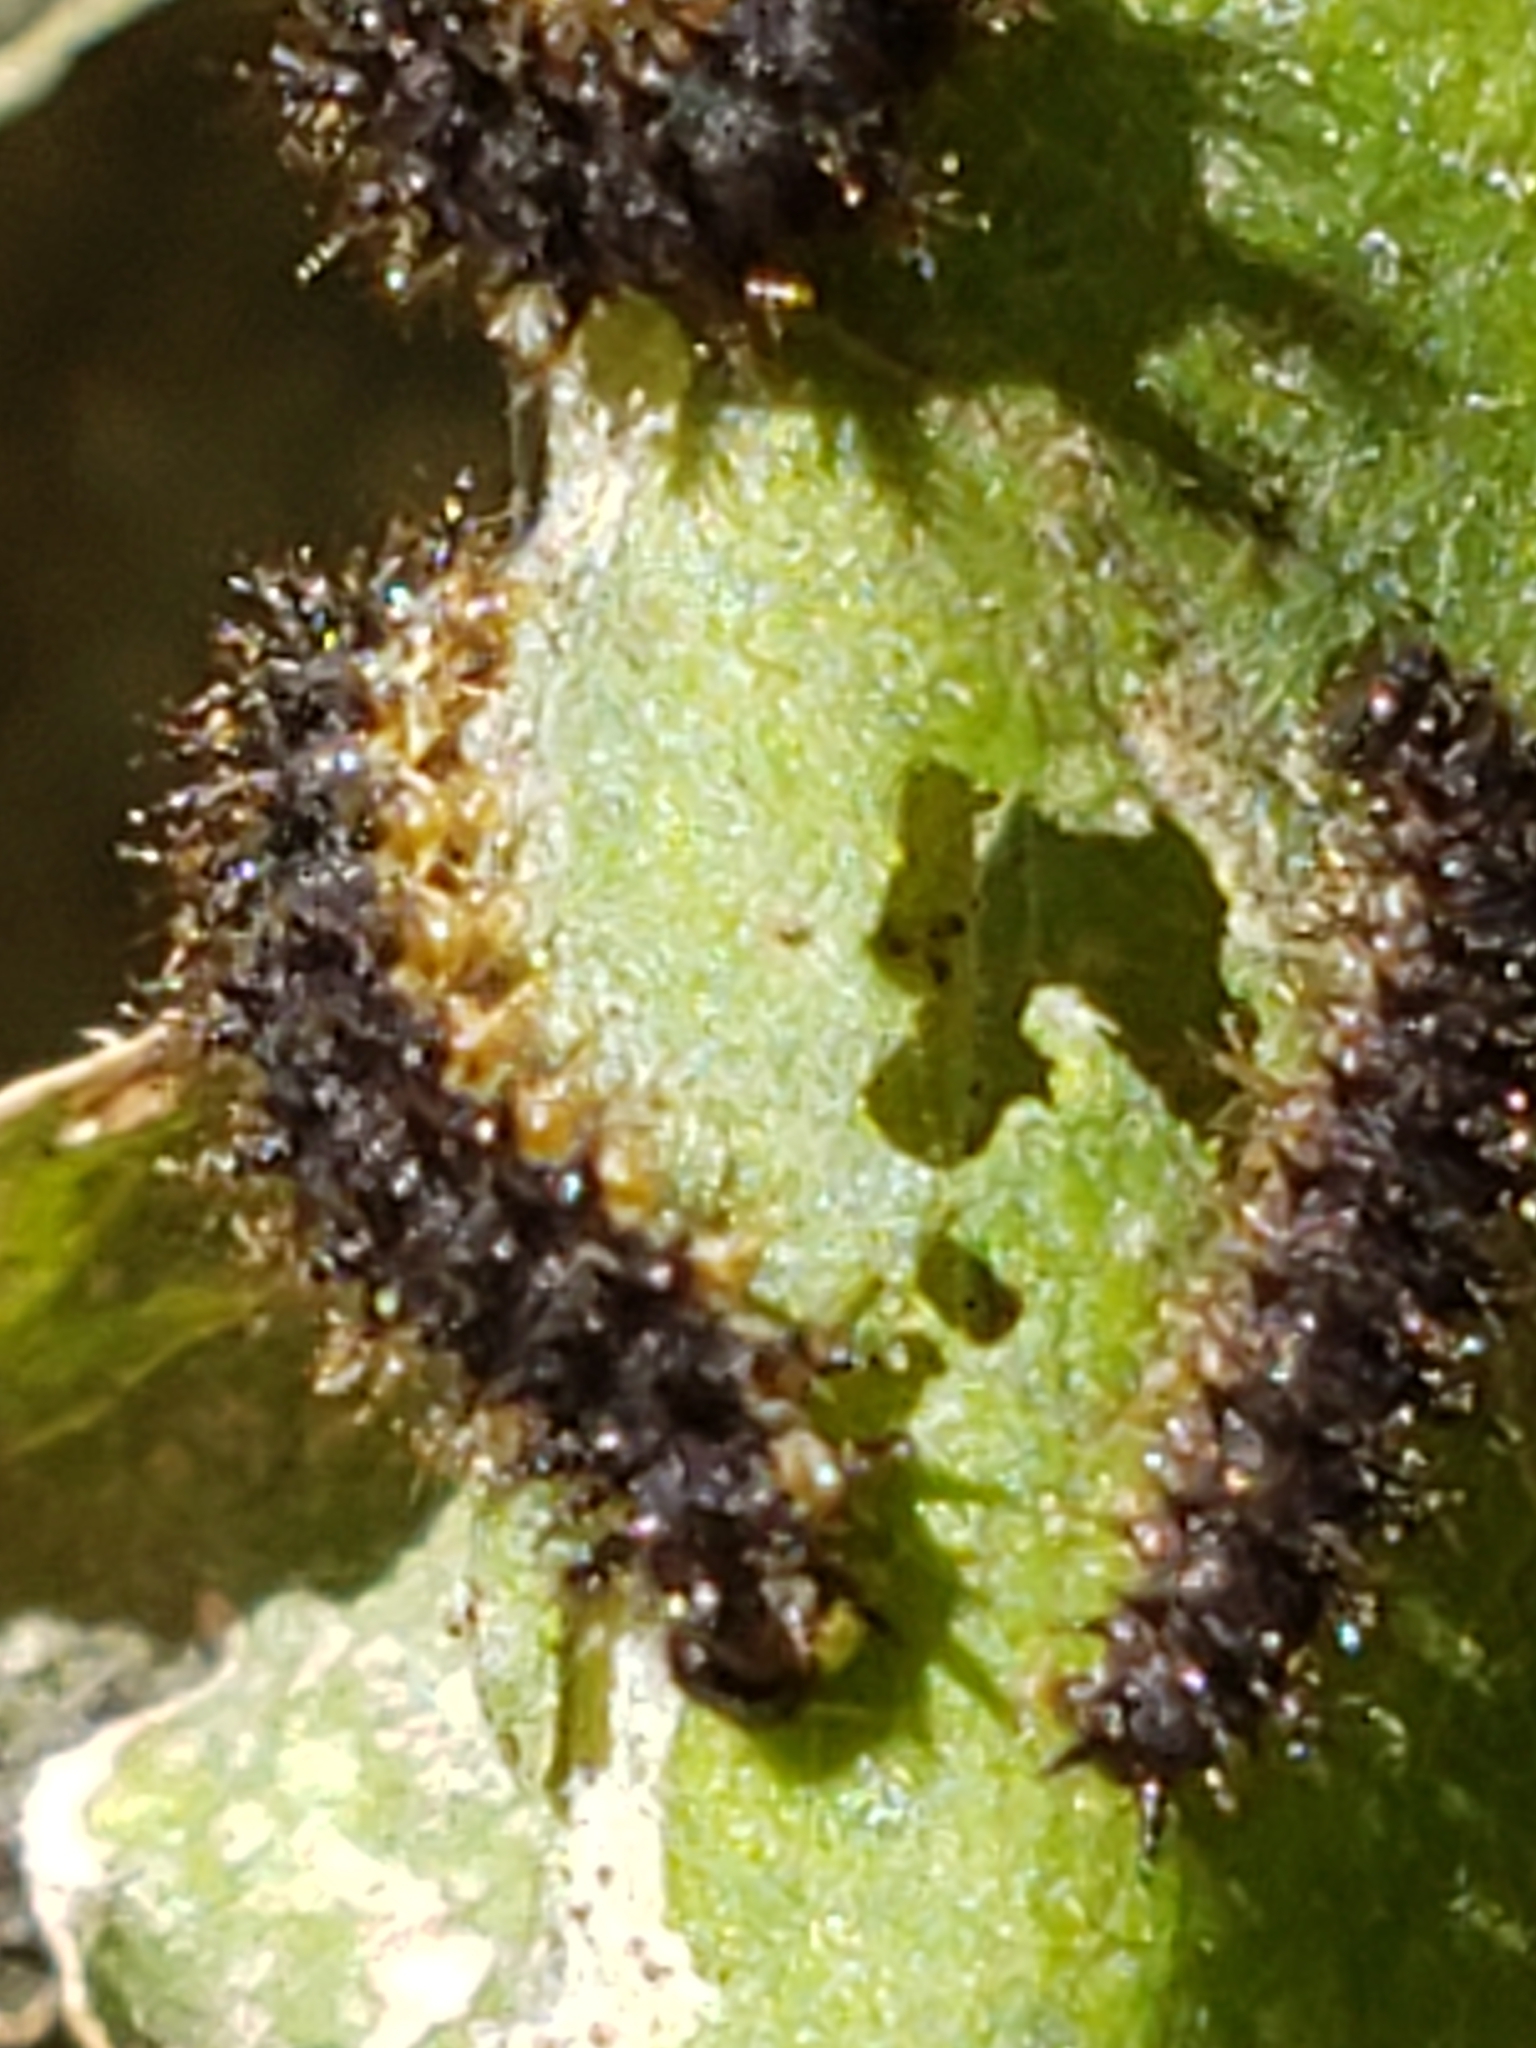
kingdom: Animalia
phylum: Arthropoda
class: Insecta
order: Lepidoptera
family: Nymphalidae
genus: Chlosyne
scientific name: Chlosyne nycteis
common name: Silvery checkerspot
